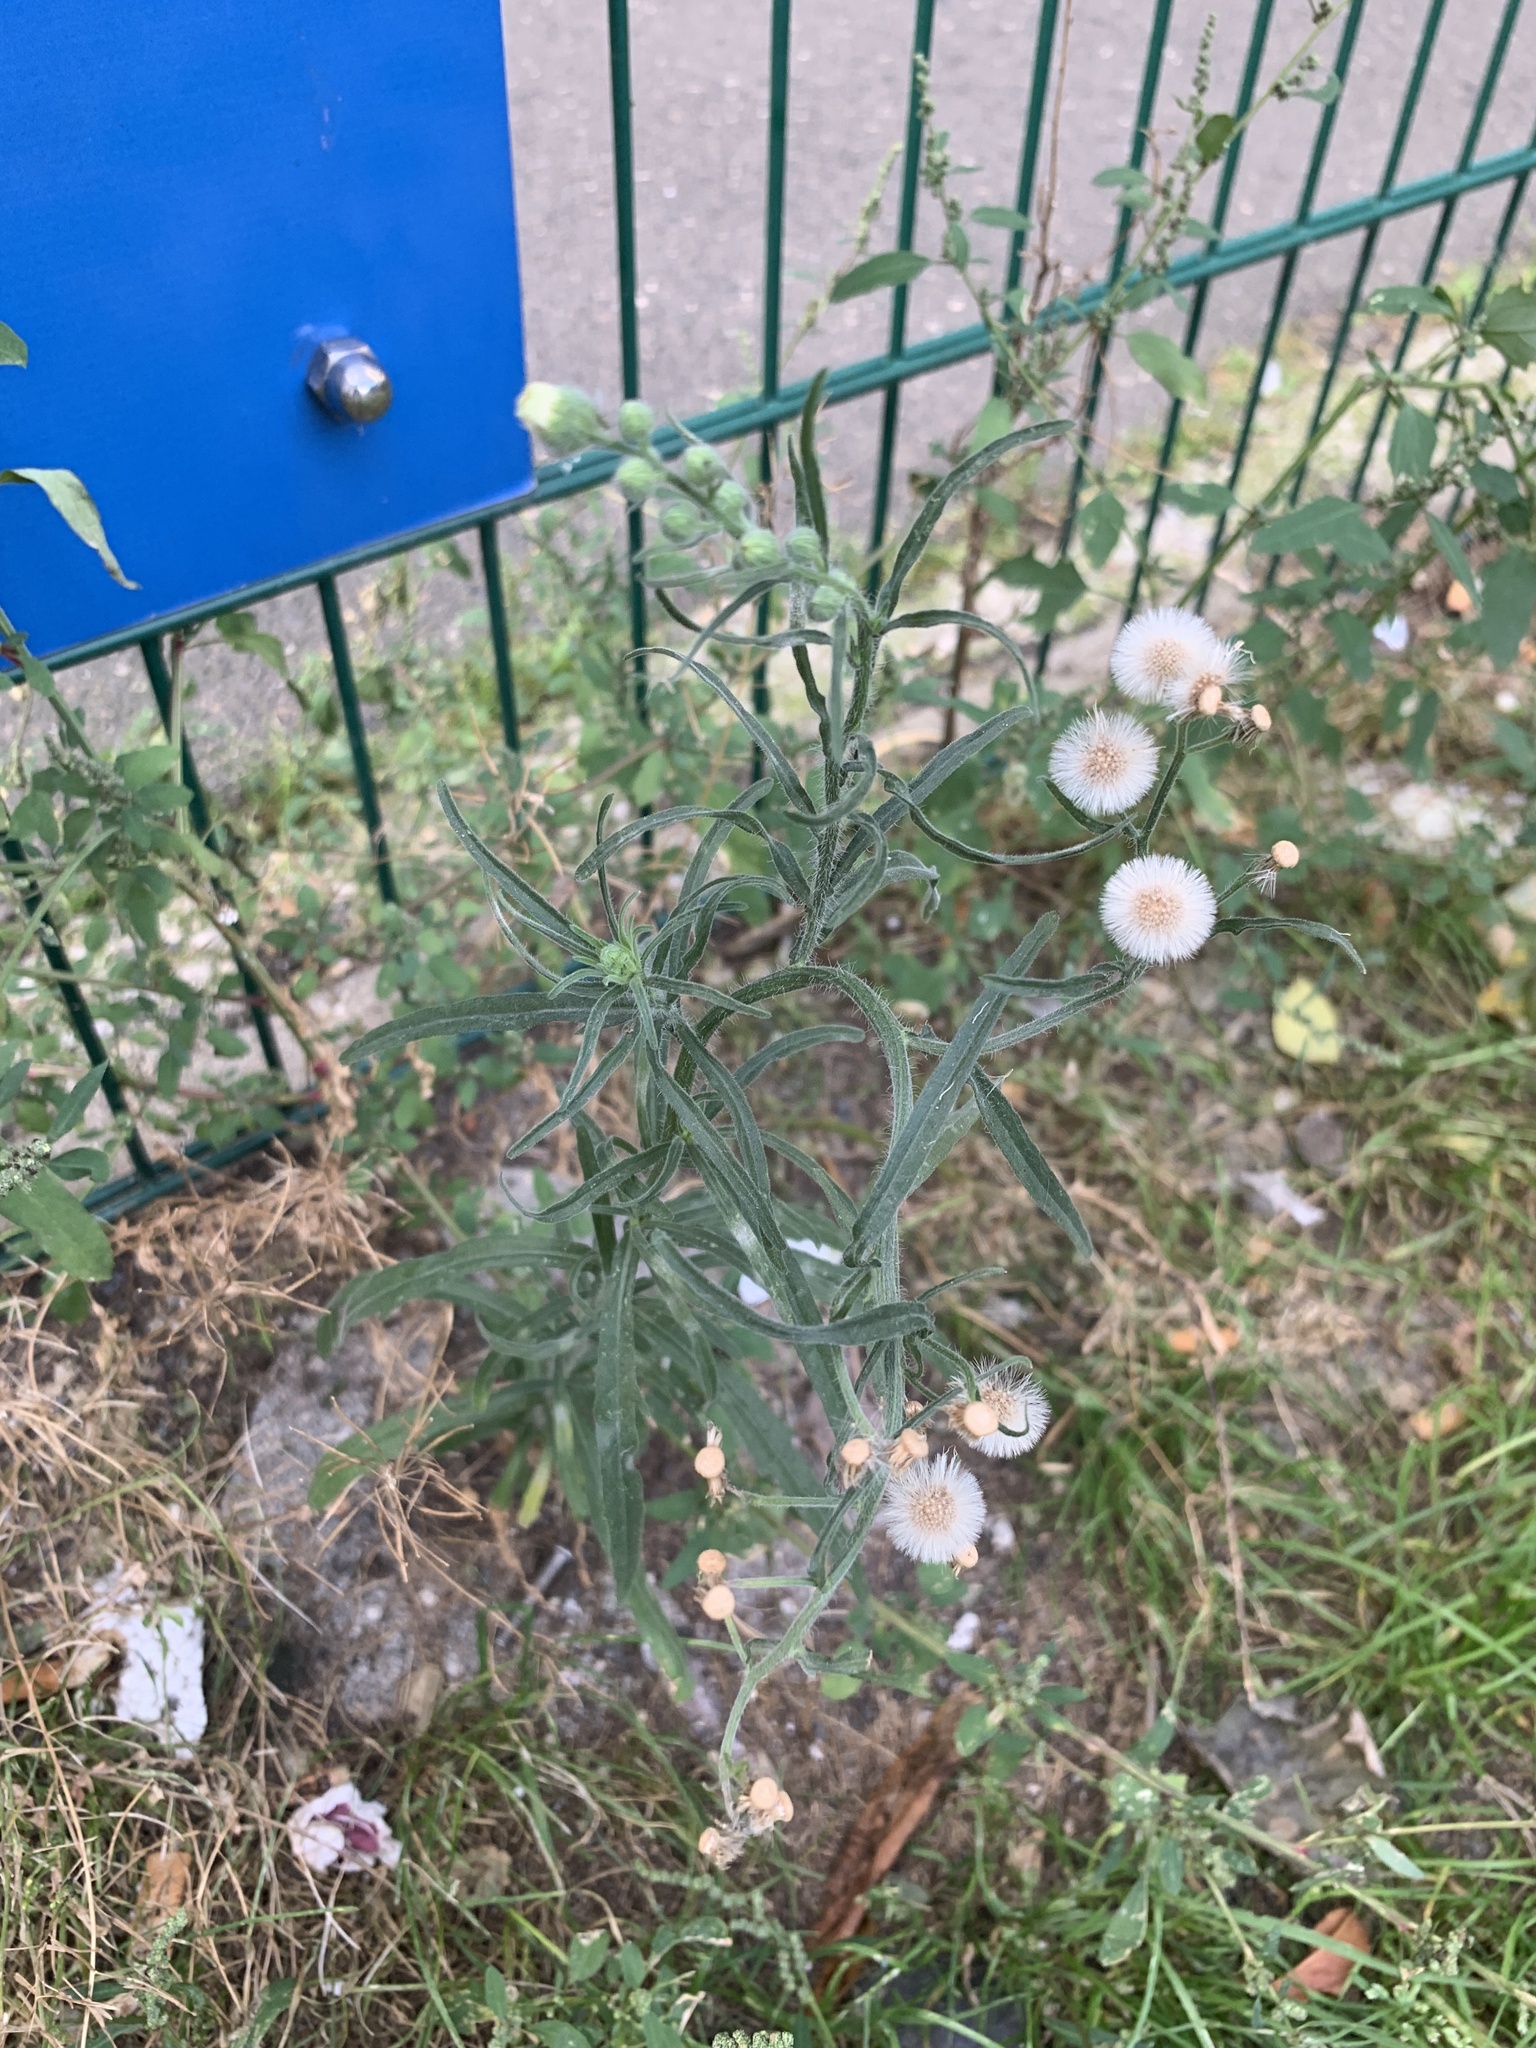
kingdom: Plantae
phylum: Tracheophyta
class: Magnoliopsida
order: Asterales
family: Asteraceae
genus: Erigeron
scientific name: Erigeron bonariensis
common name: Argentine fleabane
